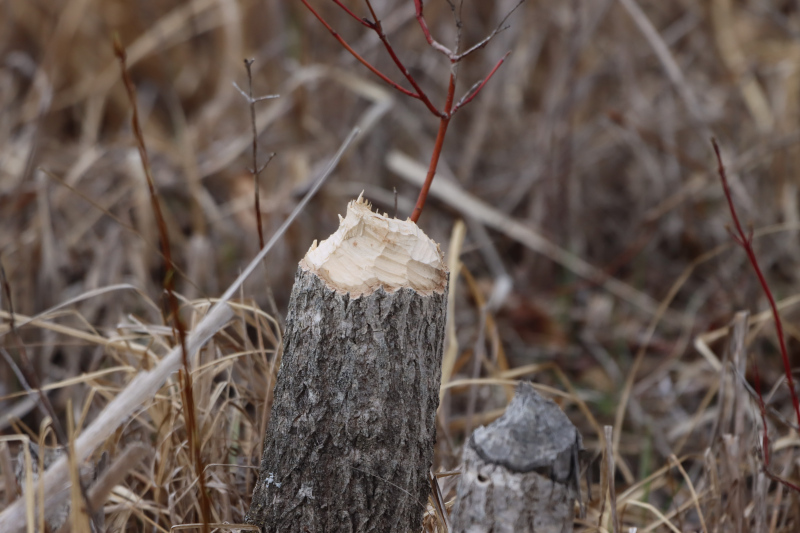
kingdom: Animalia
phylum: Chordata
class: Mammalia
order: Rodentia
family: Castoridae
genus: Castor
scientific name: Castor canadensis
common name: American beaver
